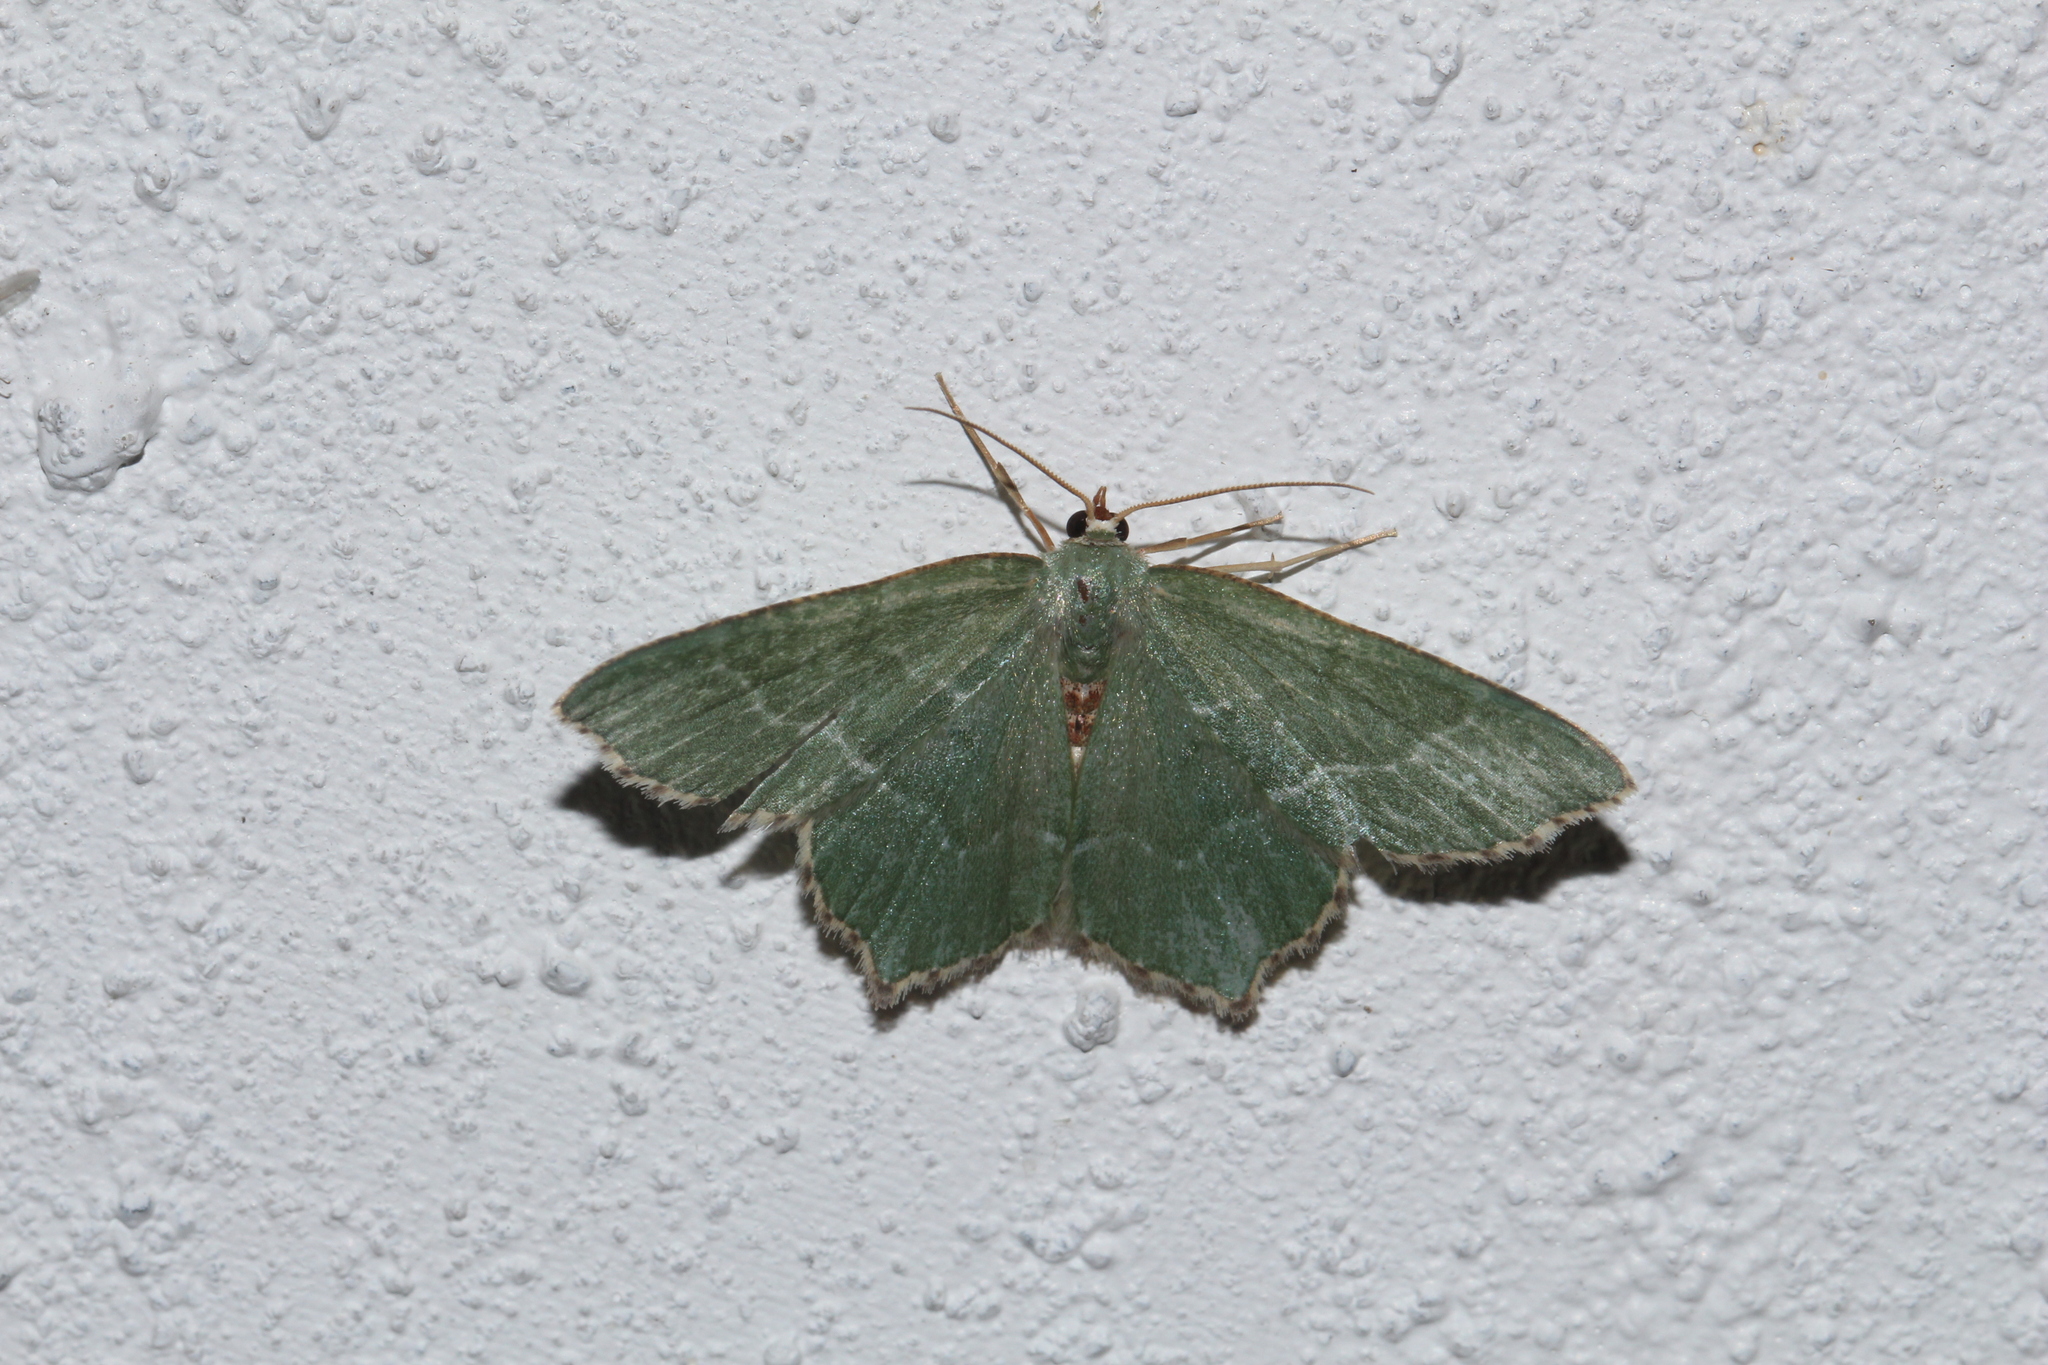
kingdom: Animalia
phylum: Arthropoda
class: Insecta
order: Lepidoptera
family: Geometridae
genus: Hemithea
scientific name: Hemithea aestivaria
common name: Common emerald
